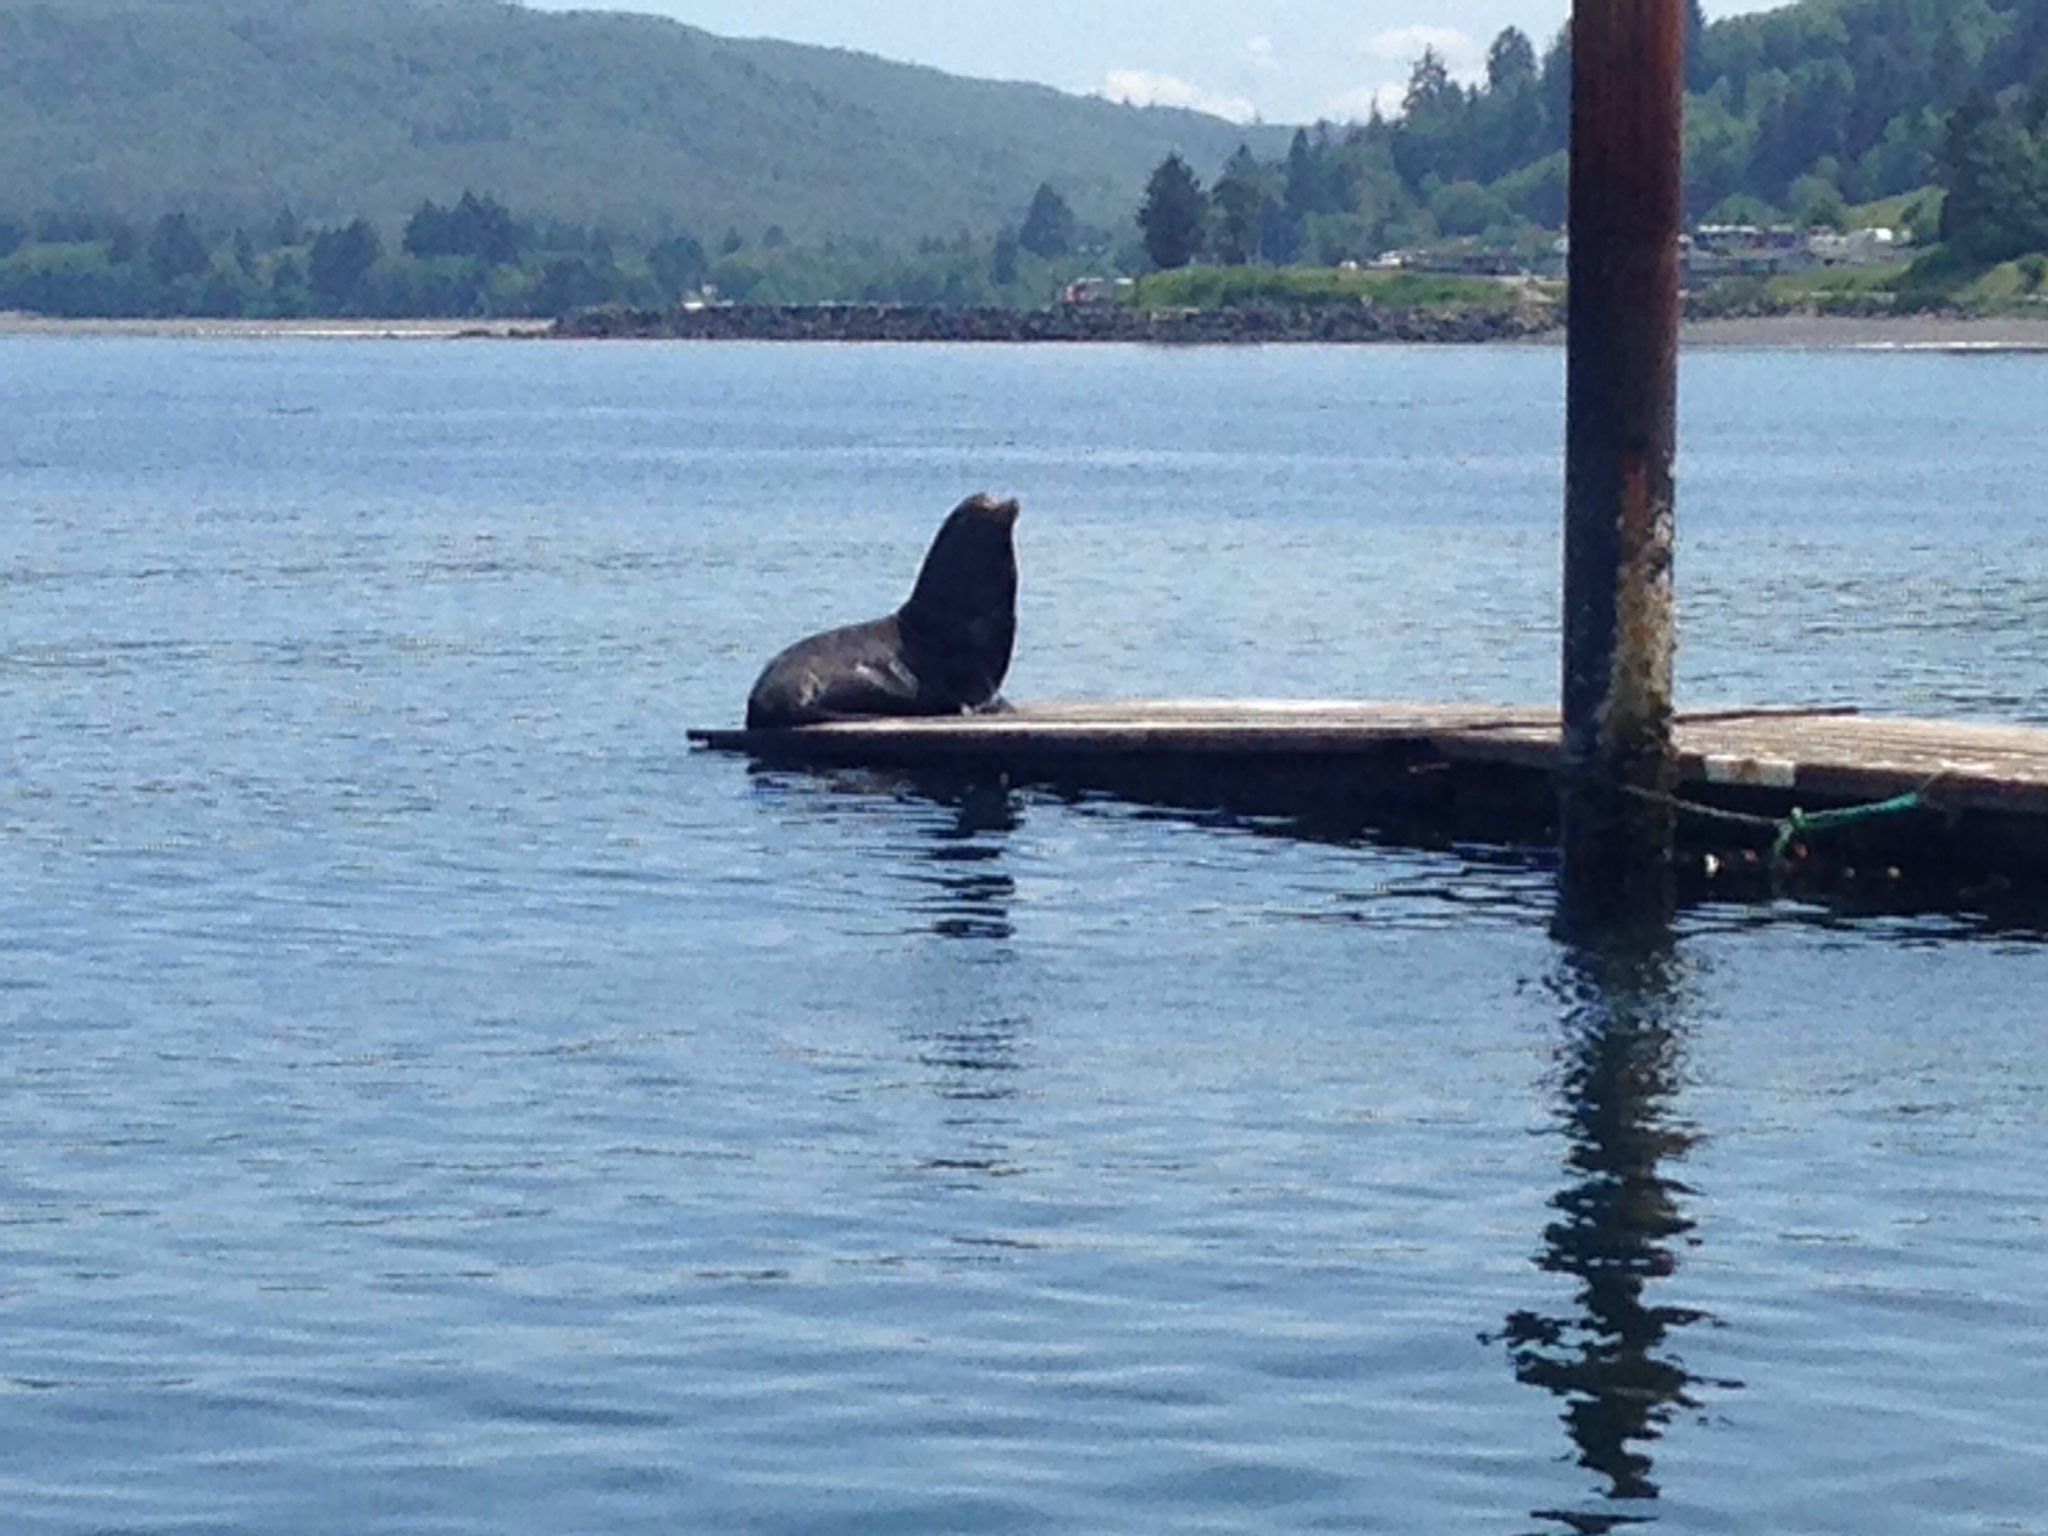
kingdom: Animalia
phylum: Chordata
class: Mammalia
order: Carnivora
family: Otariidae
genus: Zalophus
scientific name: Zalophus californianus
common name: California sea lion
